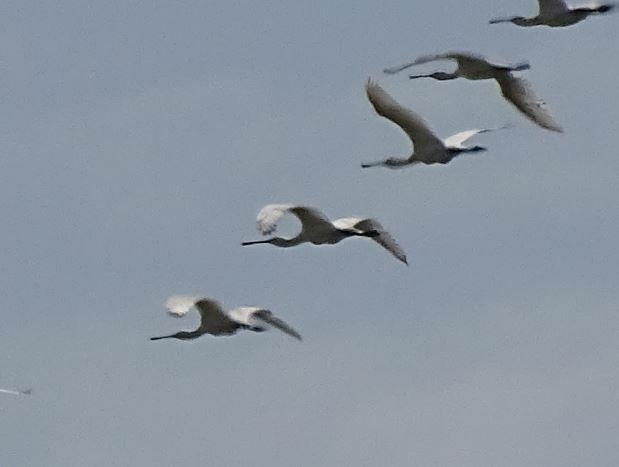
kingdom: Animalia
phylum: Chordata
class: Aves
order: Pelecaniformes
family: Threskiornithidae
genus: Platalea
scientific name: Platalea leucorodia
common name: Eurasian spoonbill
